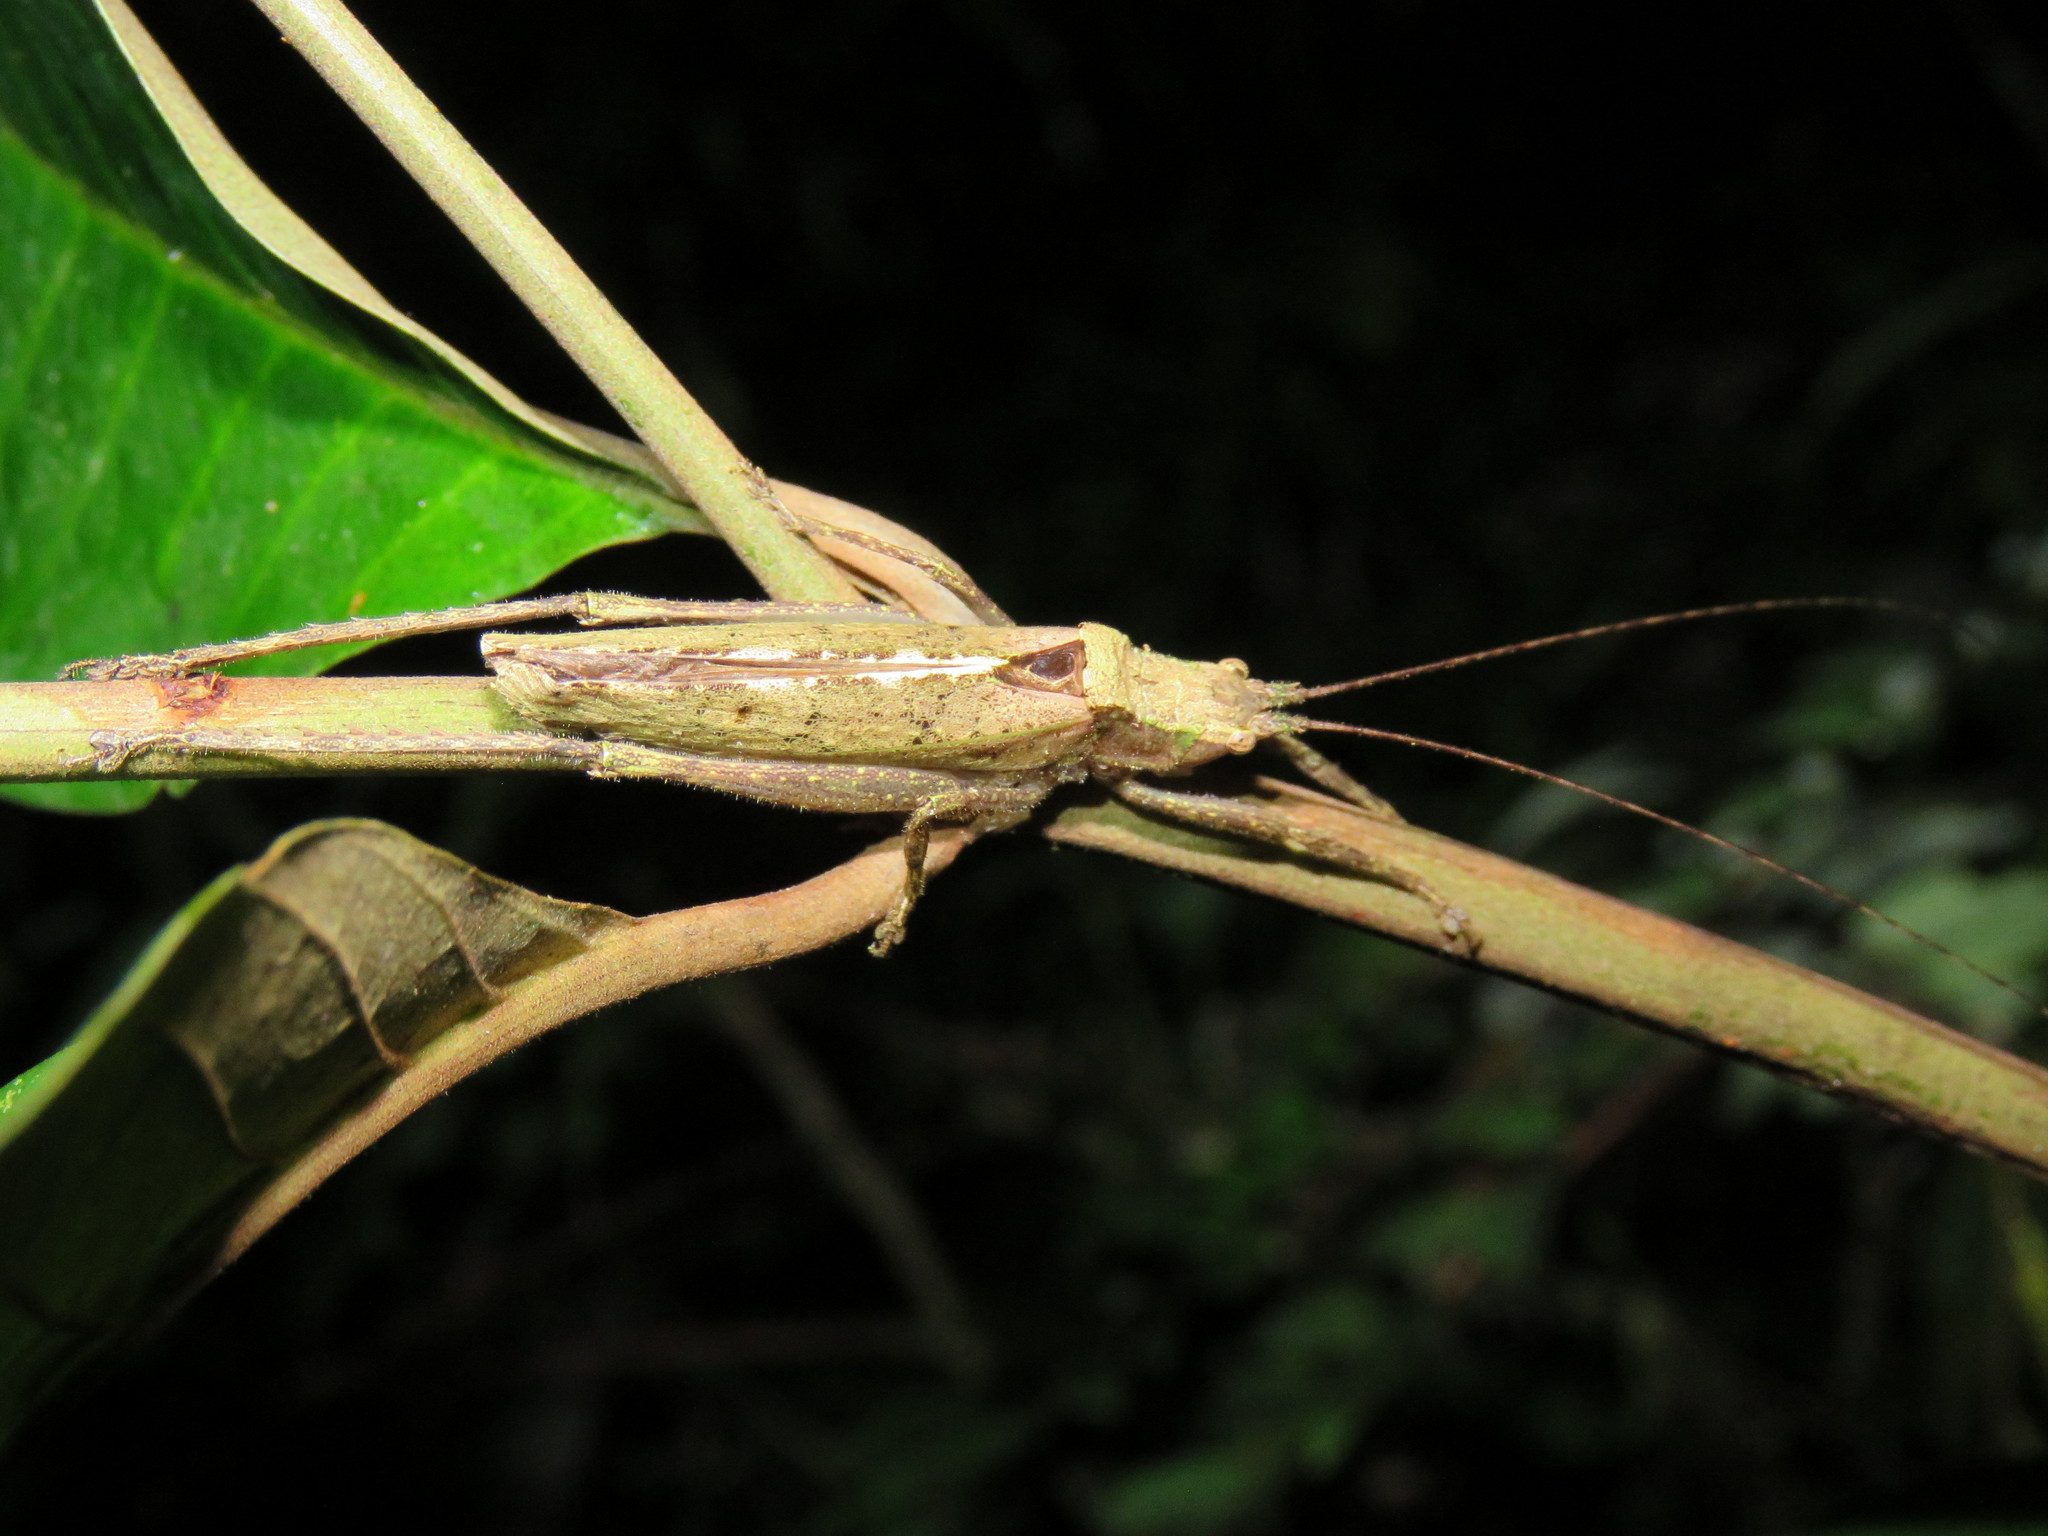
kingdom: Animalia
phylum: Arthropoda
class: Insecta
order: Orthoptera
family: Tettigoniidae
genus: Pedinothorax
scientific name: Pedinothorax exiguus
